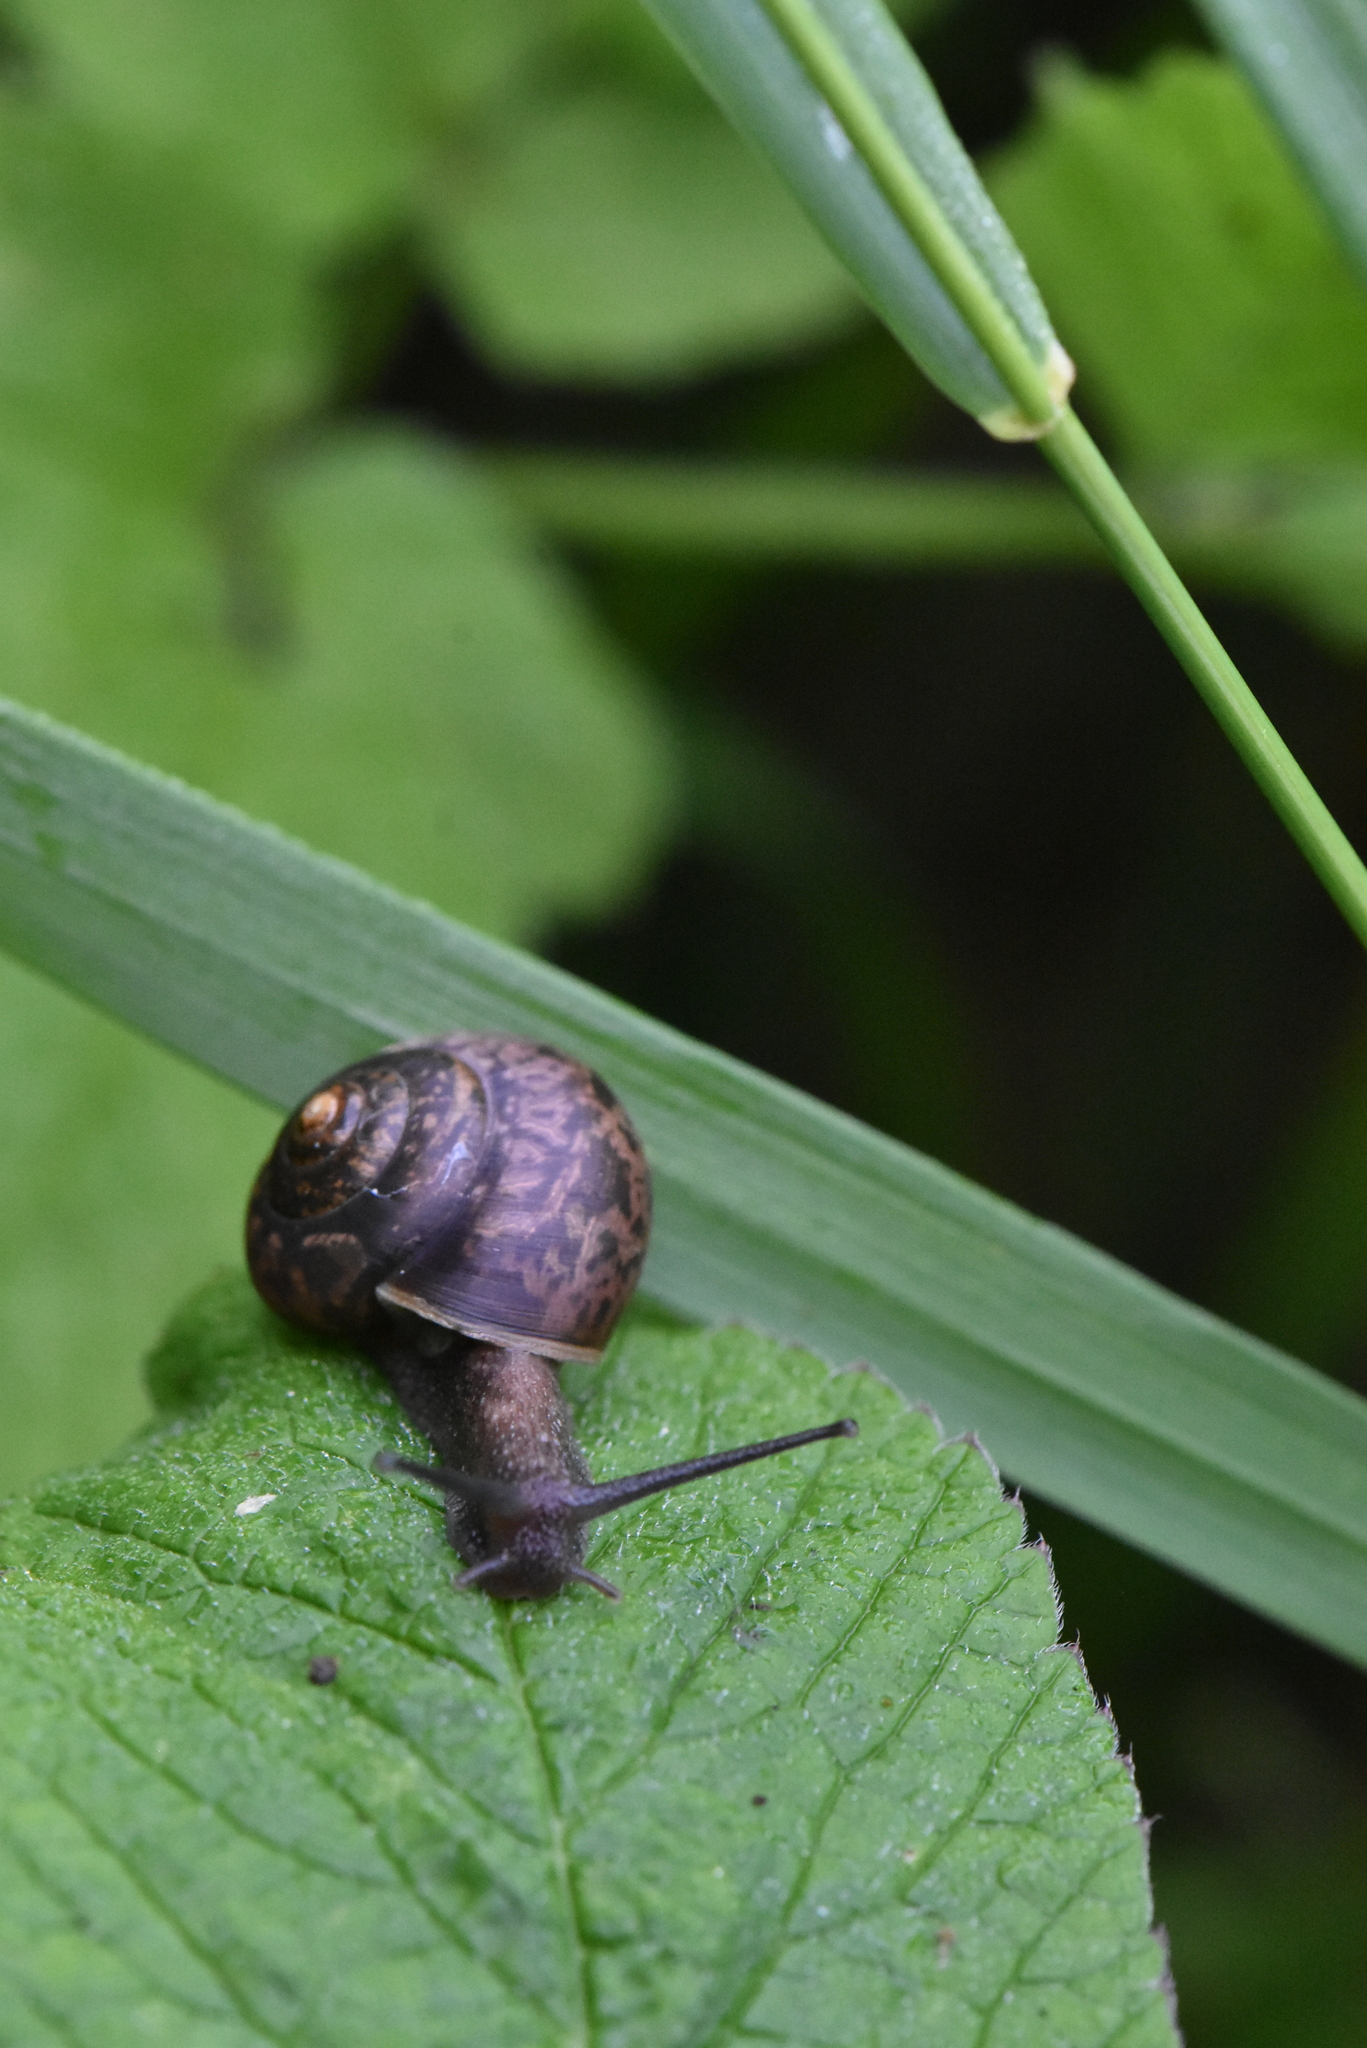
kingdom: Animalia
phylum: Mollusca
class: Gastropoda
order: Stylommatophora
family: Camaenidae
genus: Fruticicola
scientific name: Fruticicola fruticum
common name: Bush snail
